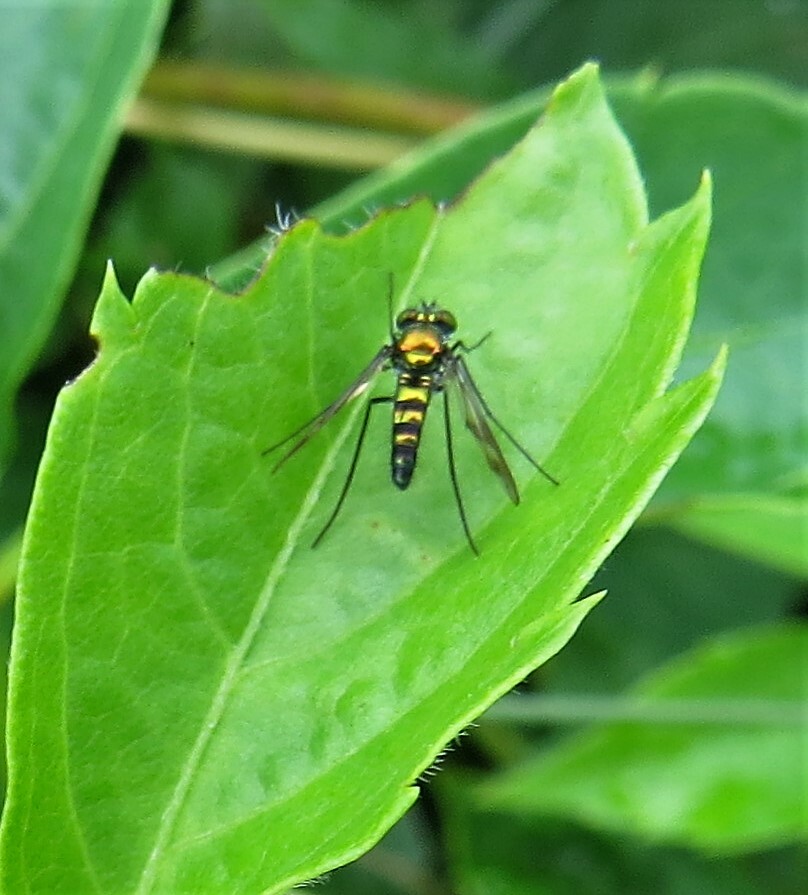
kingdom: Animalia
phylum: Arthropoda
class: Insecta
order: Diptera
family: Dolichopodidae
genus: Condylostylus
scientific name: Condylostylus patibulatus
